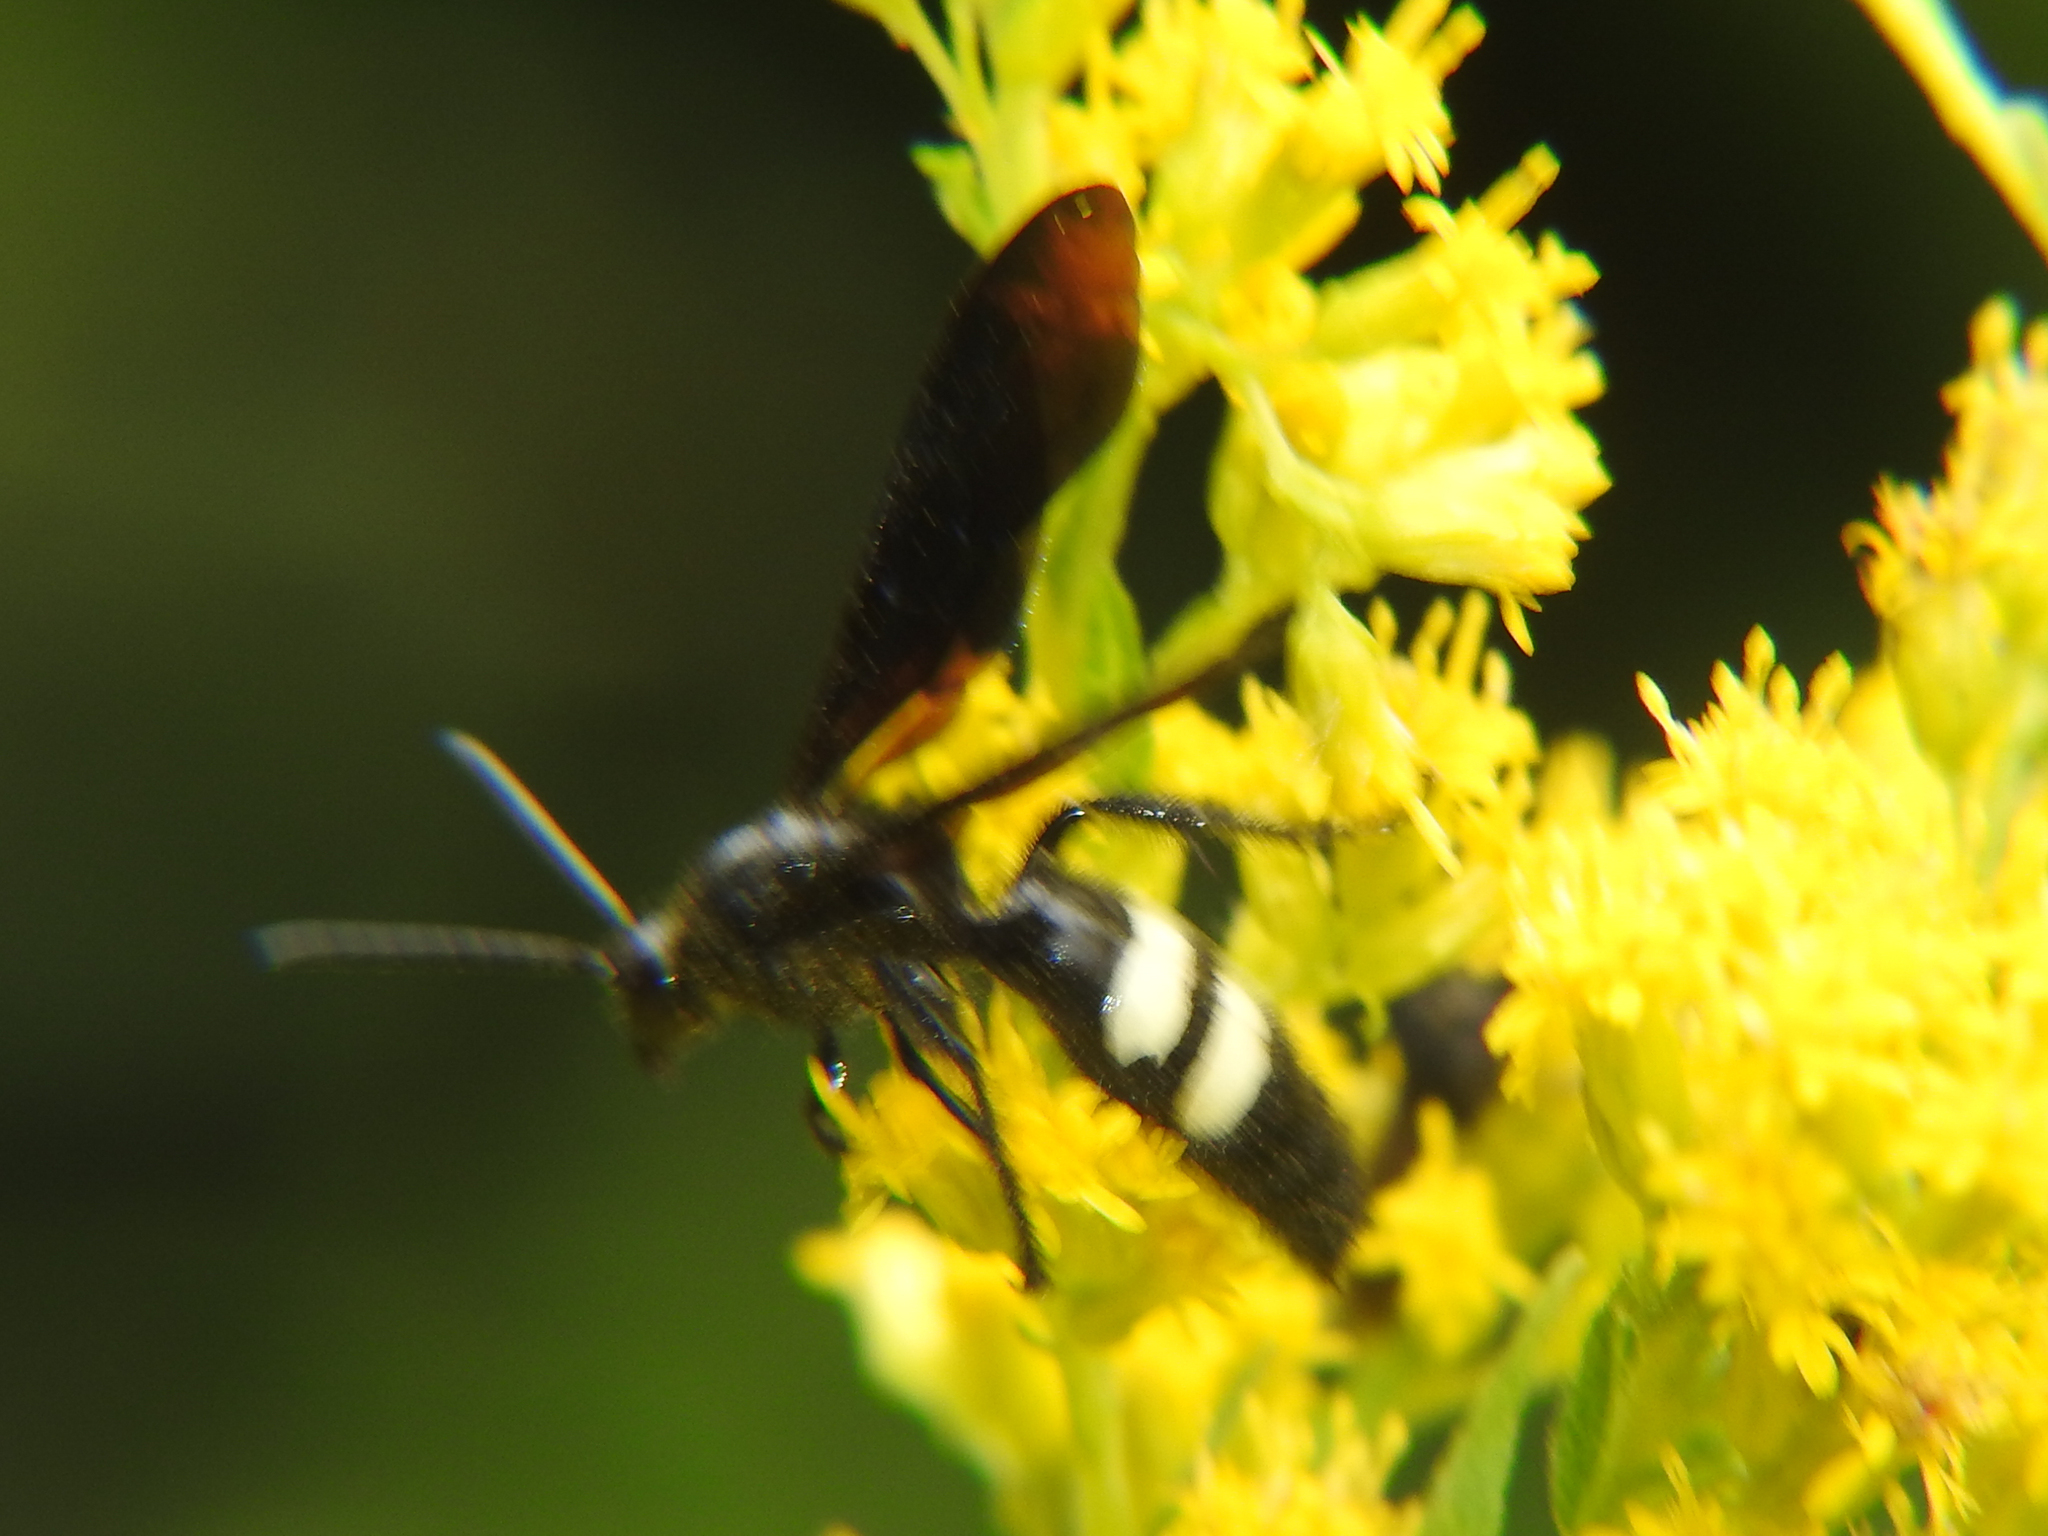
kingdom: Animalia
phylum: Arthropoda
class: Insecta
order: Hymenoptera
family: Scoliidae
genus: Scolia
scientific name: Scolia bicincta
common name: Double-banded scoliid wasp
